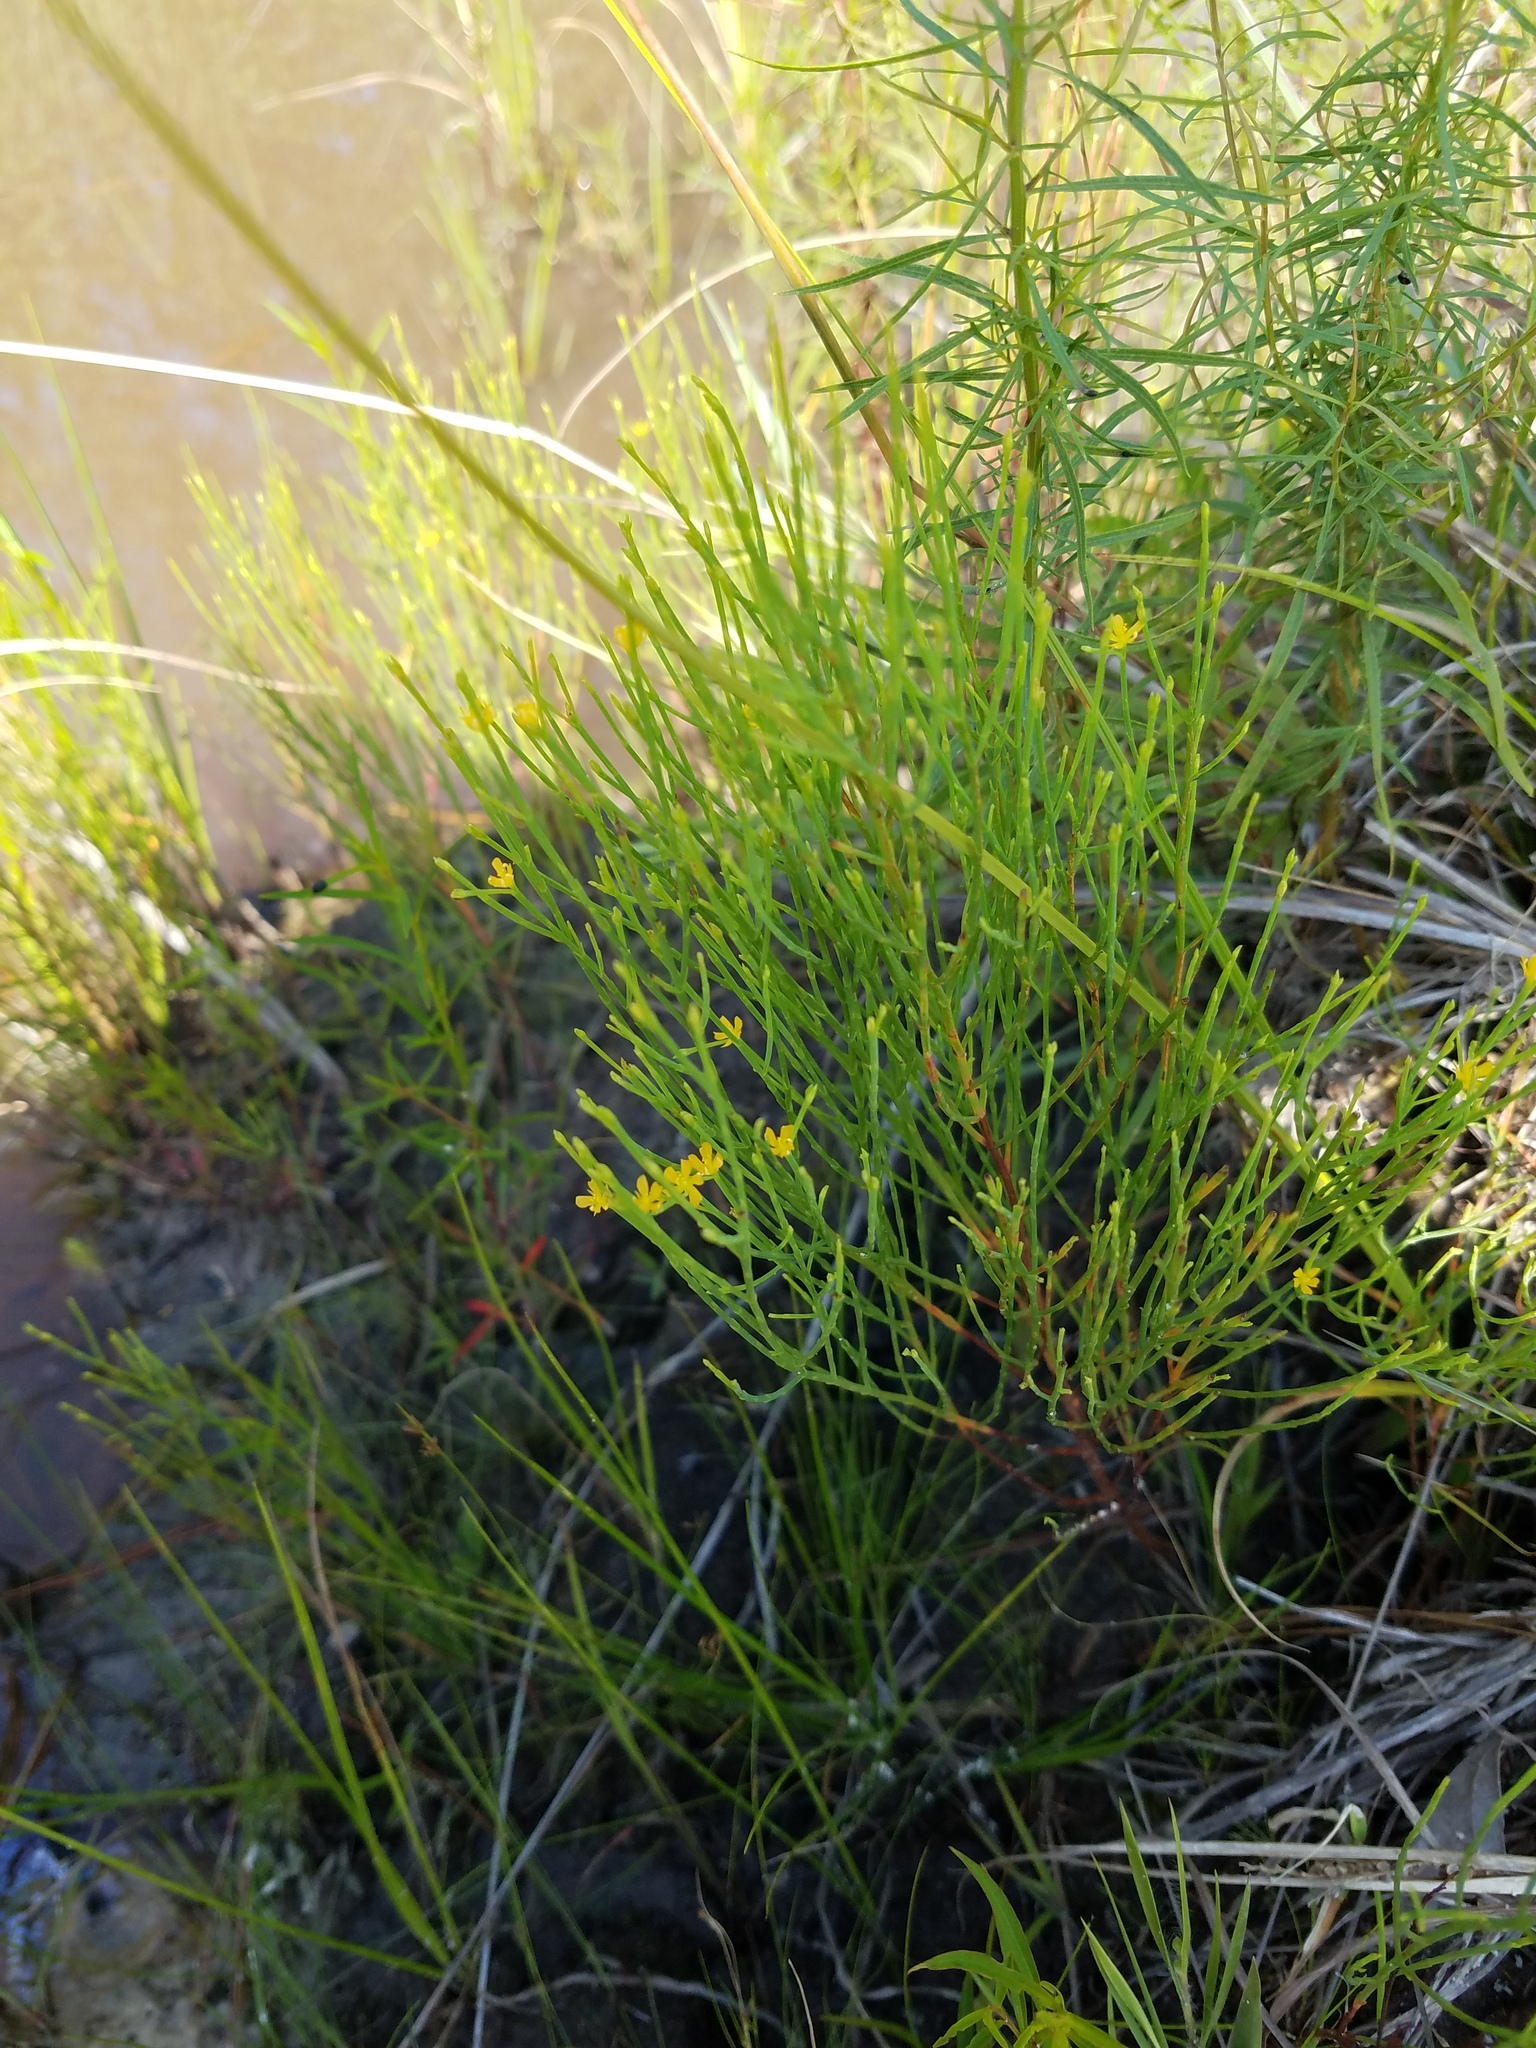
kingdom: Plantae
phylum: Tracheophyta
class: Magnoliopsida
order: Malpighiales
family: Hypericaceae
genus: Hypericum
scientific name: Hypericum gentianoides
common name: Gentian-leaved st. john's-wort
